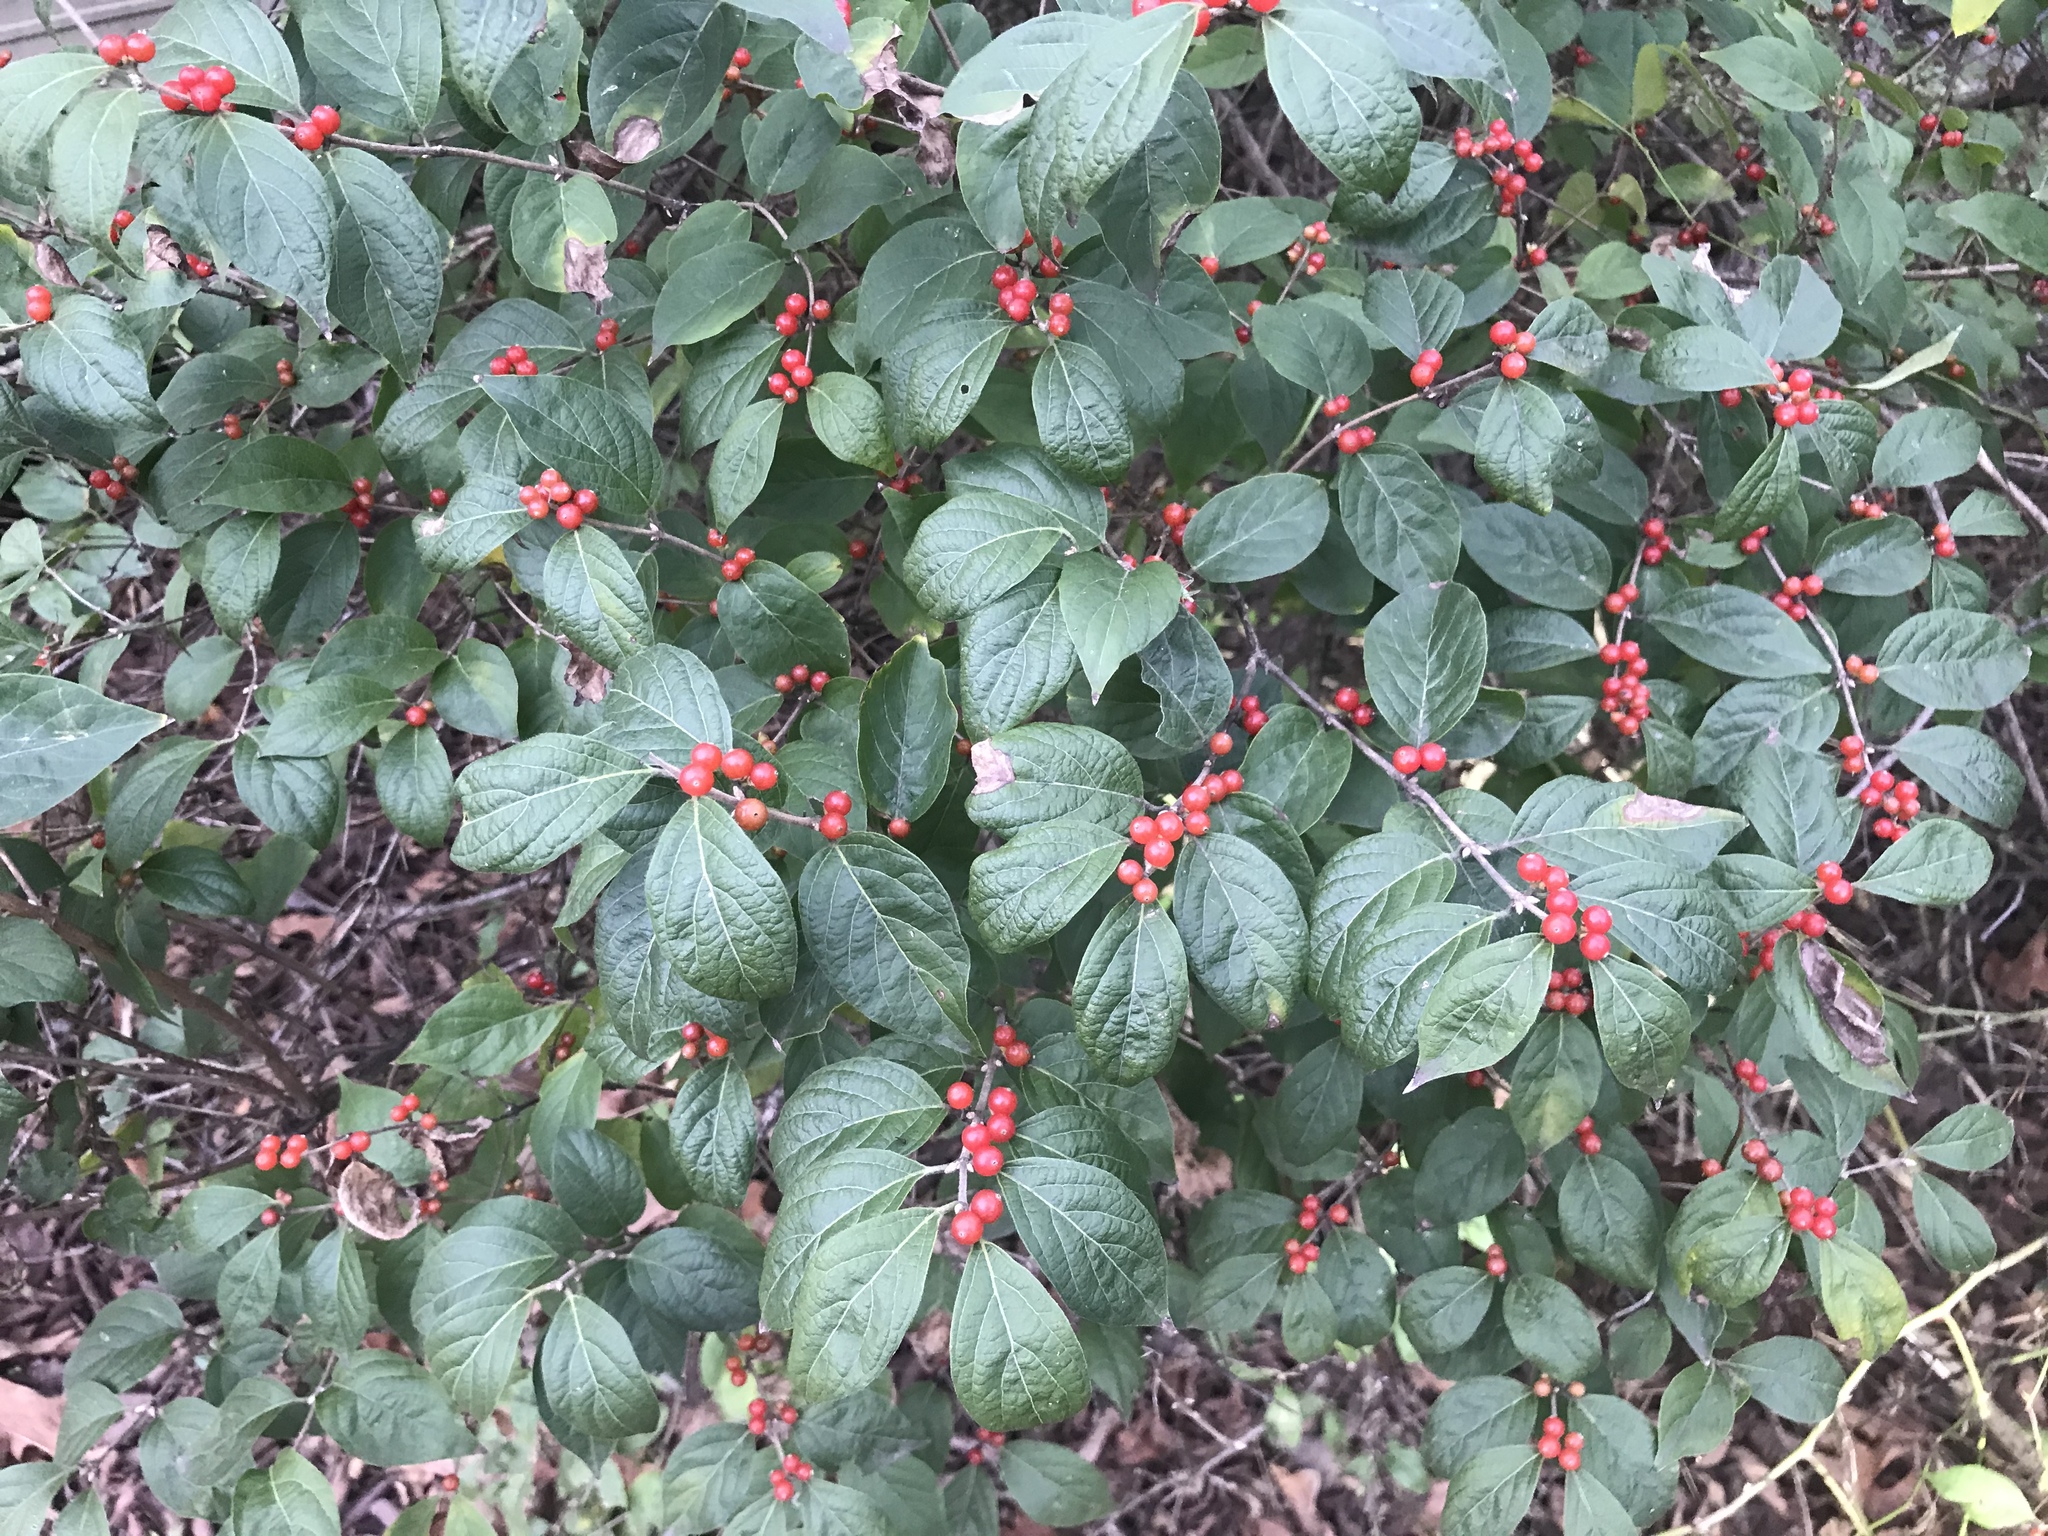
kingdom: Plantae
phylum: Tracheophyta
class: Magnoliopsida
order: Dipsacales
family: Caprifoliaceae
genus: Lonicera
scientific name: Lonicera maackii
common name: Amur honeysuckle
